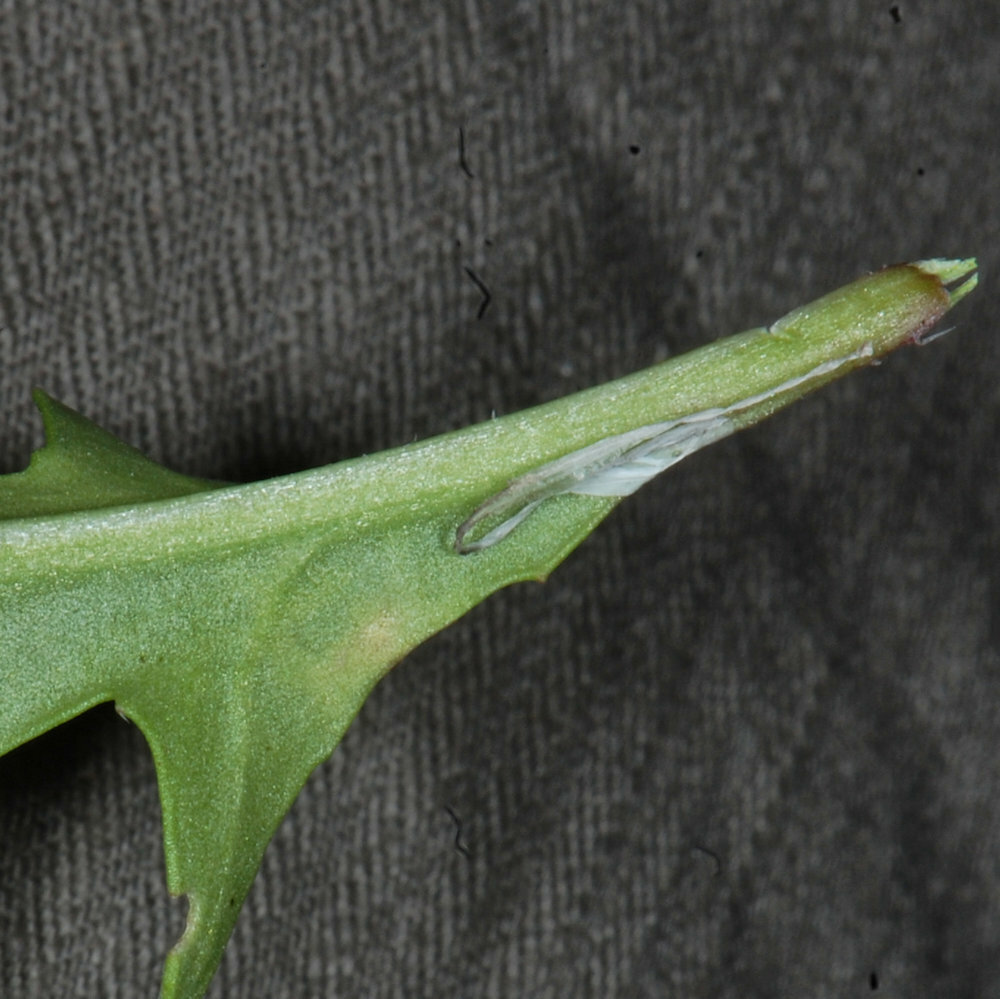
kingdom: Animalia
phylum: Arthropoda
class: Insecta
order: Diptera
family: Agromyzidae
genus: Liriomyza
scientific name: Liriomyza brassicae
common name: Serpentine leaf miner
